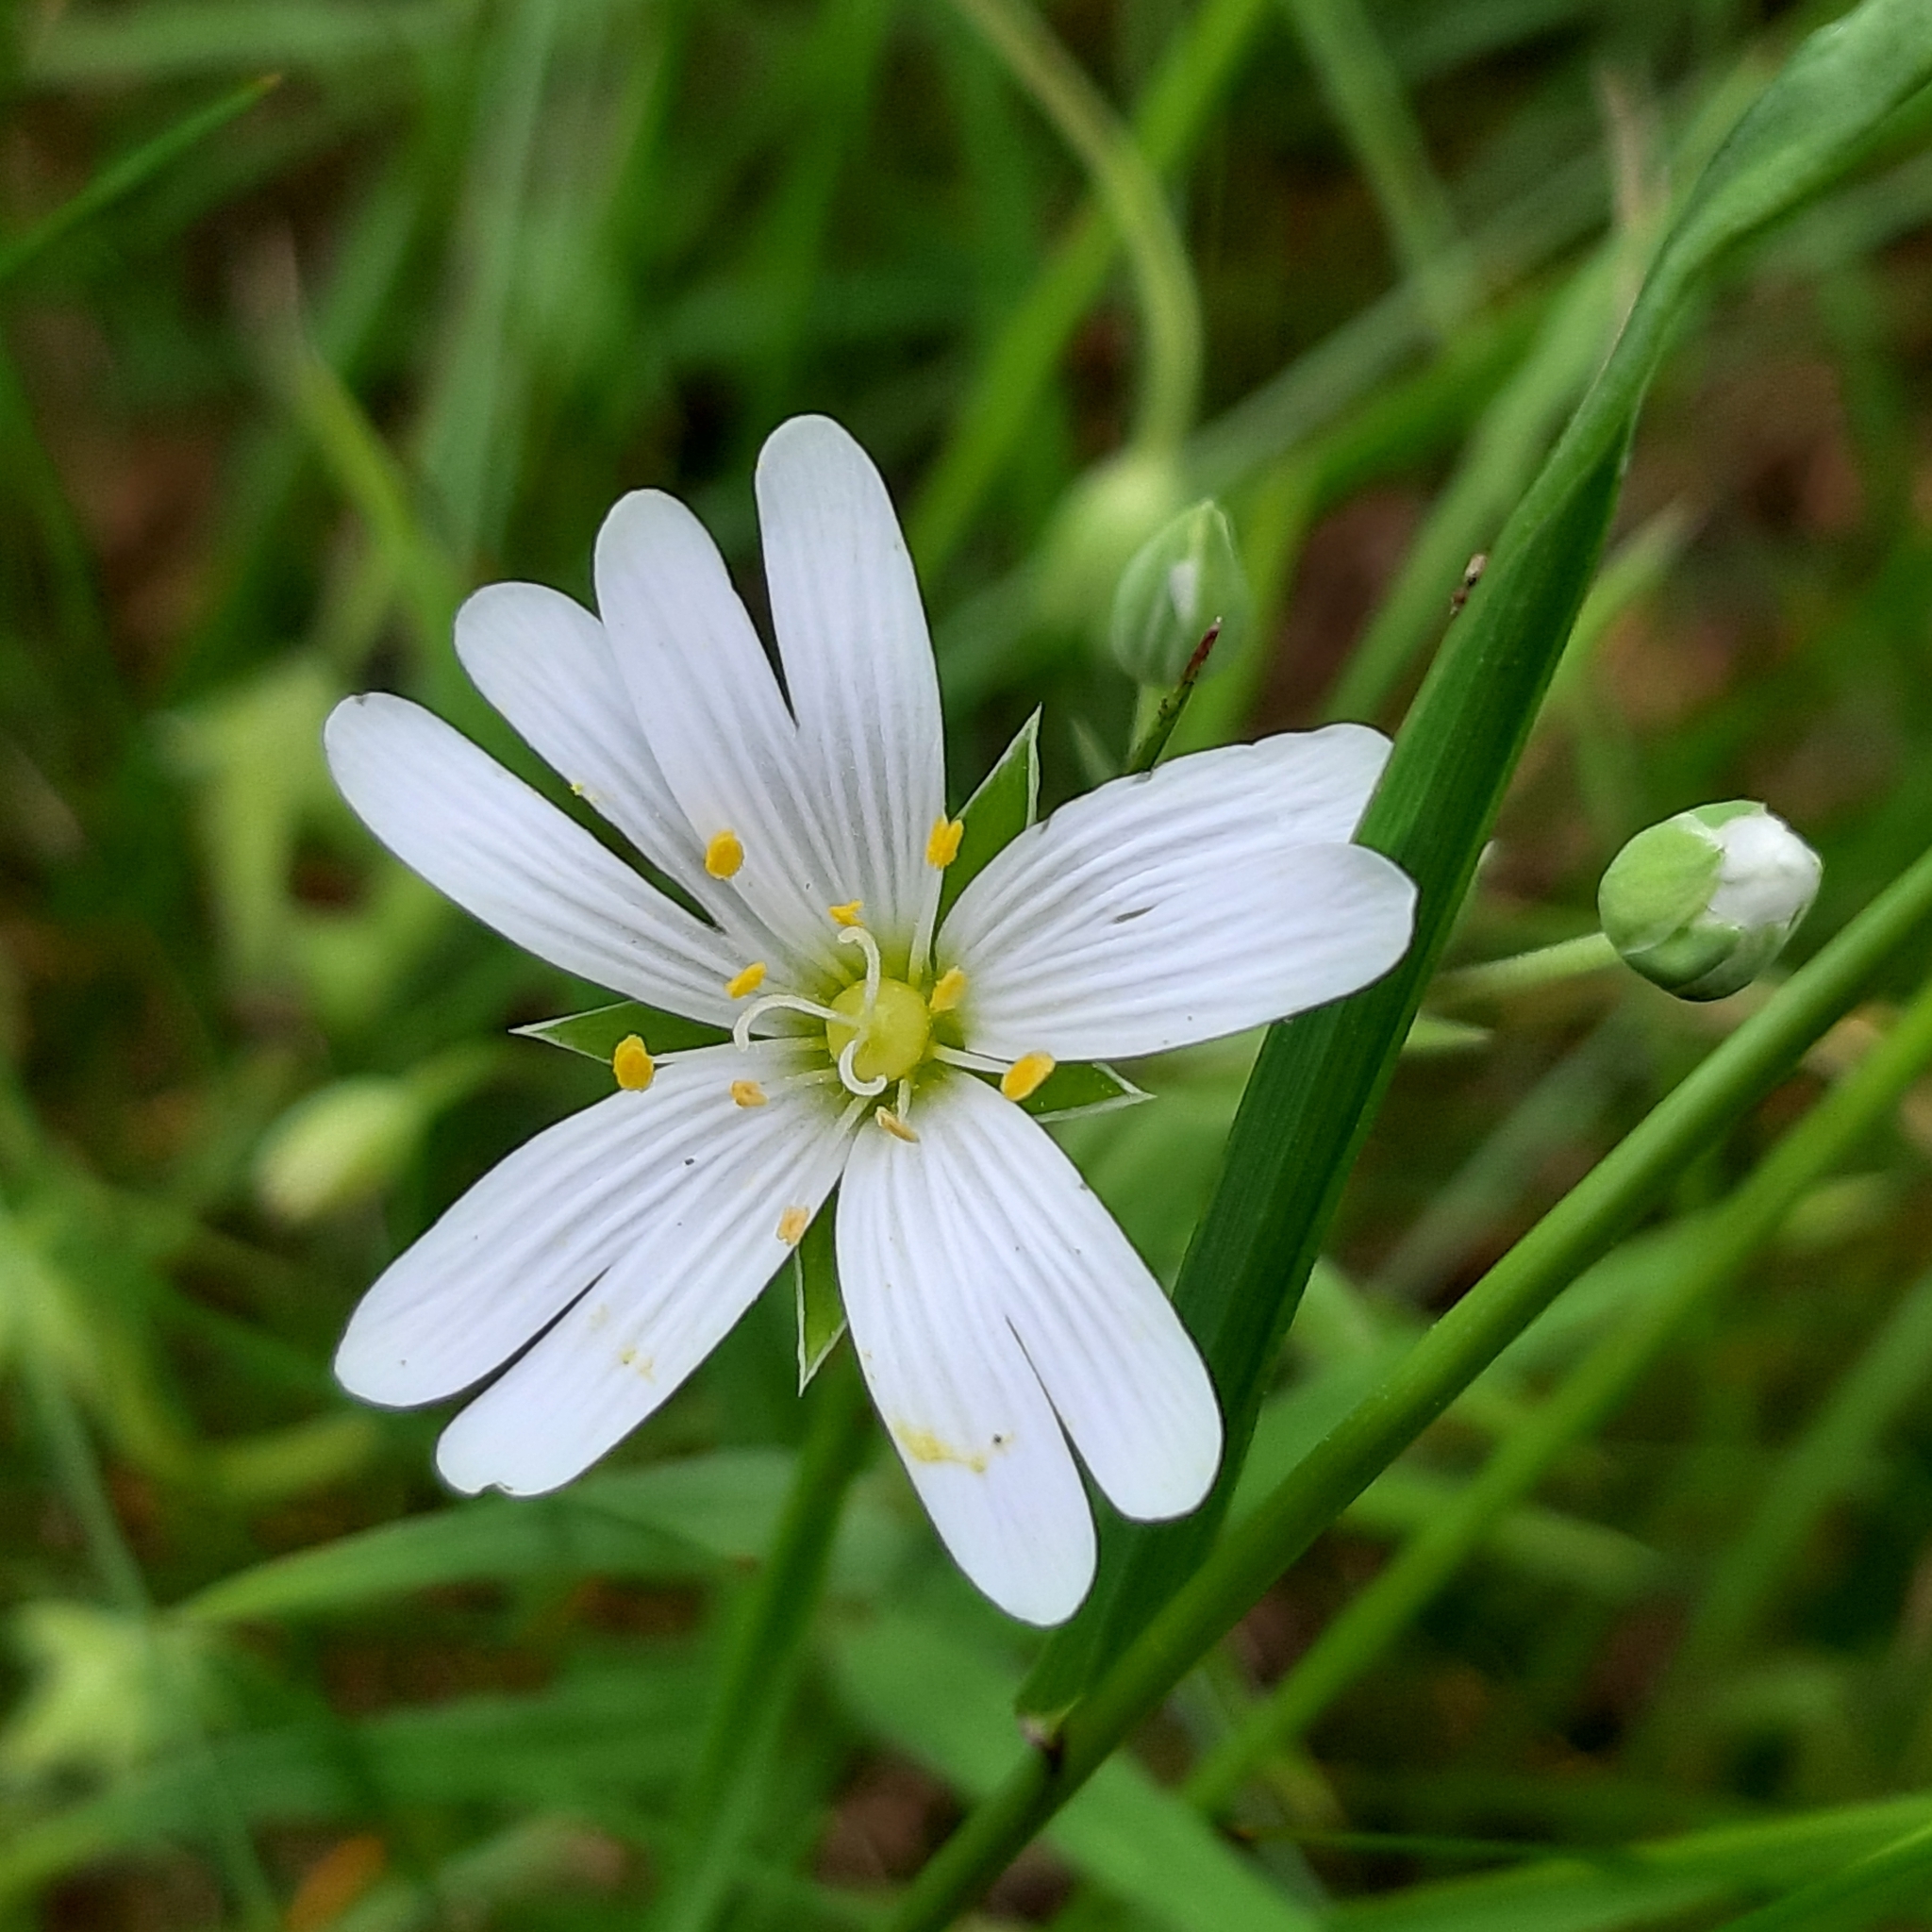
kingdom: Plantae
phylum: Tracheophyta
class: Magnoliopsida
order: Caryophyllales
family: Caryophyllaceae
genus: Rabelera
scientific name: Rabelera holostea
